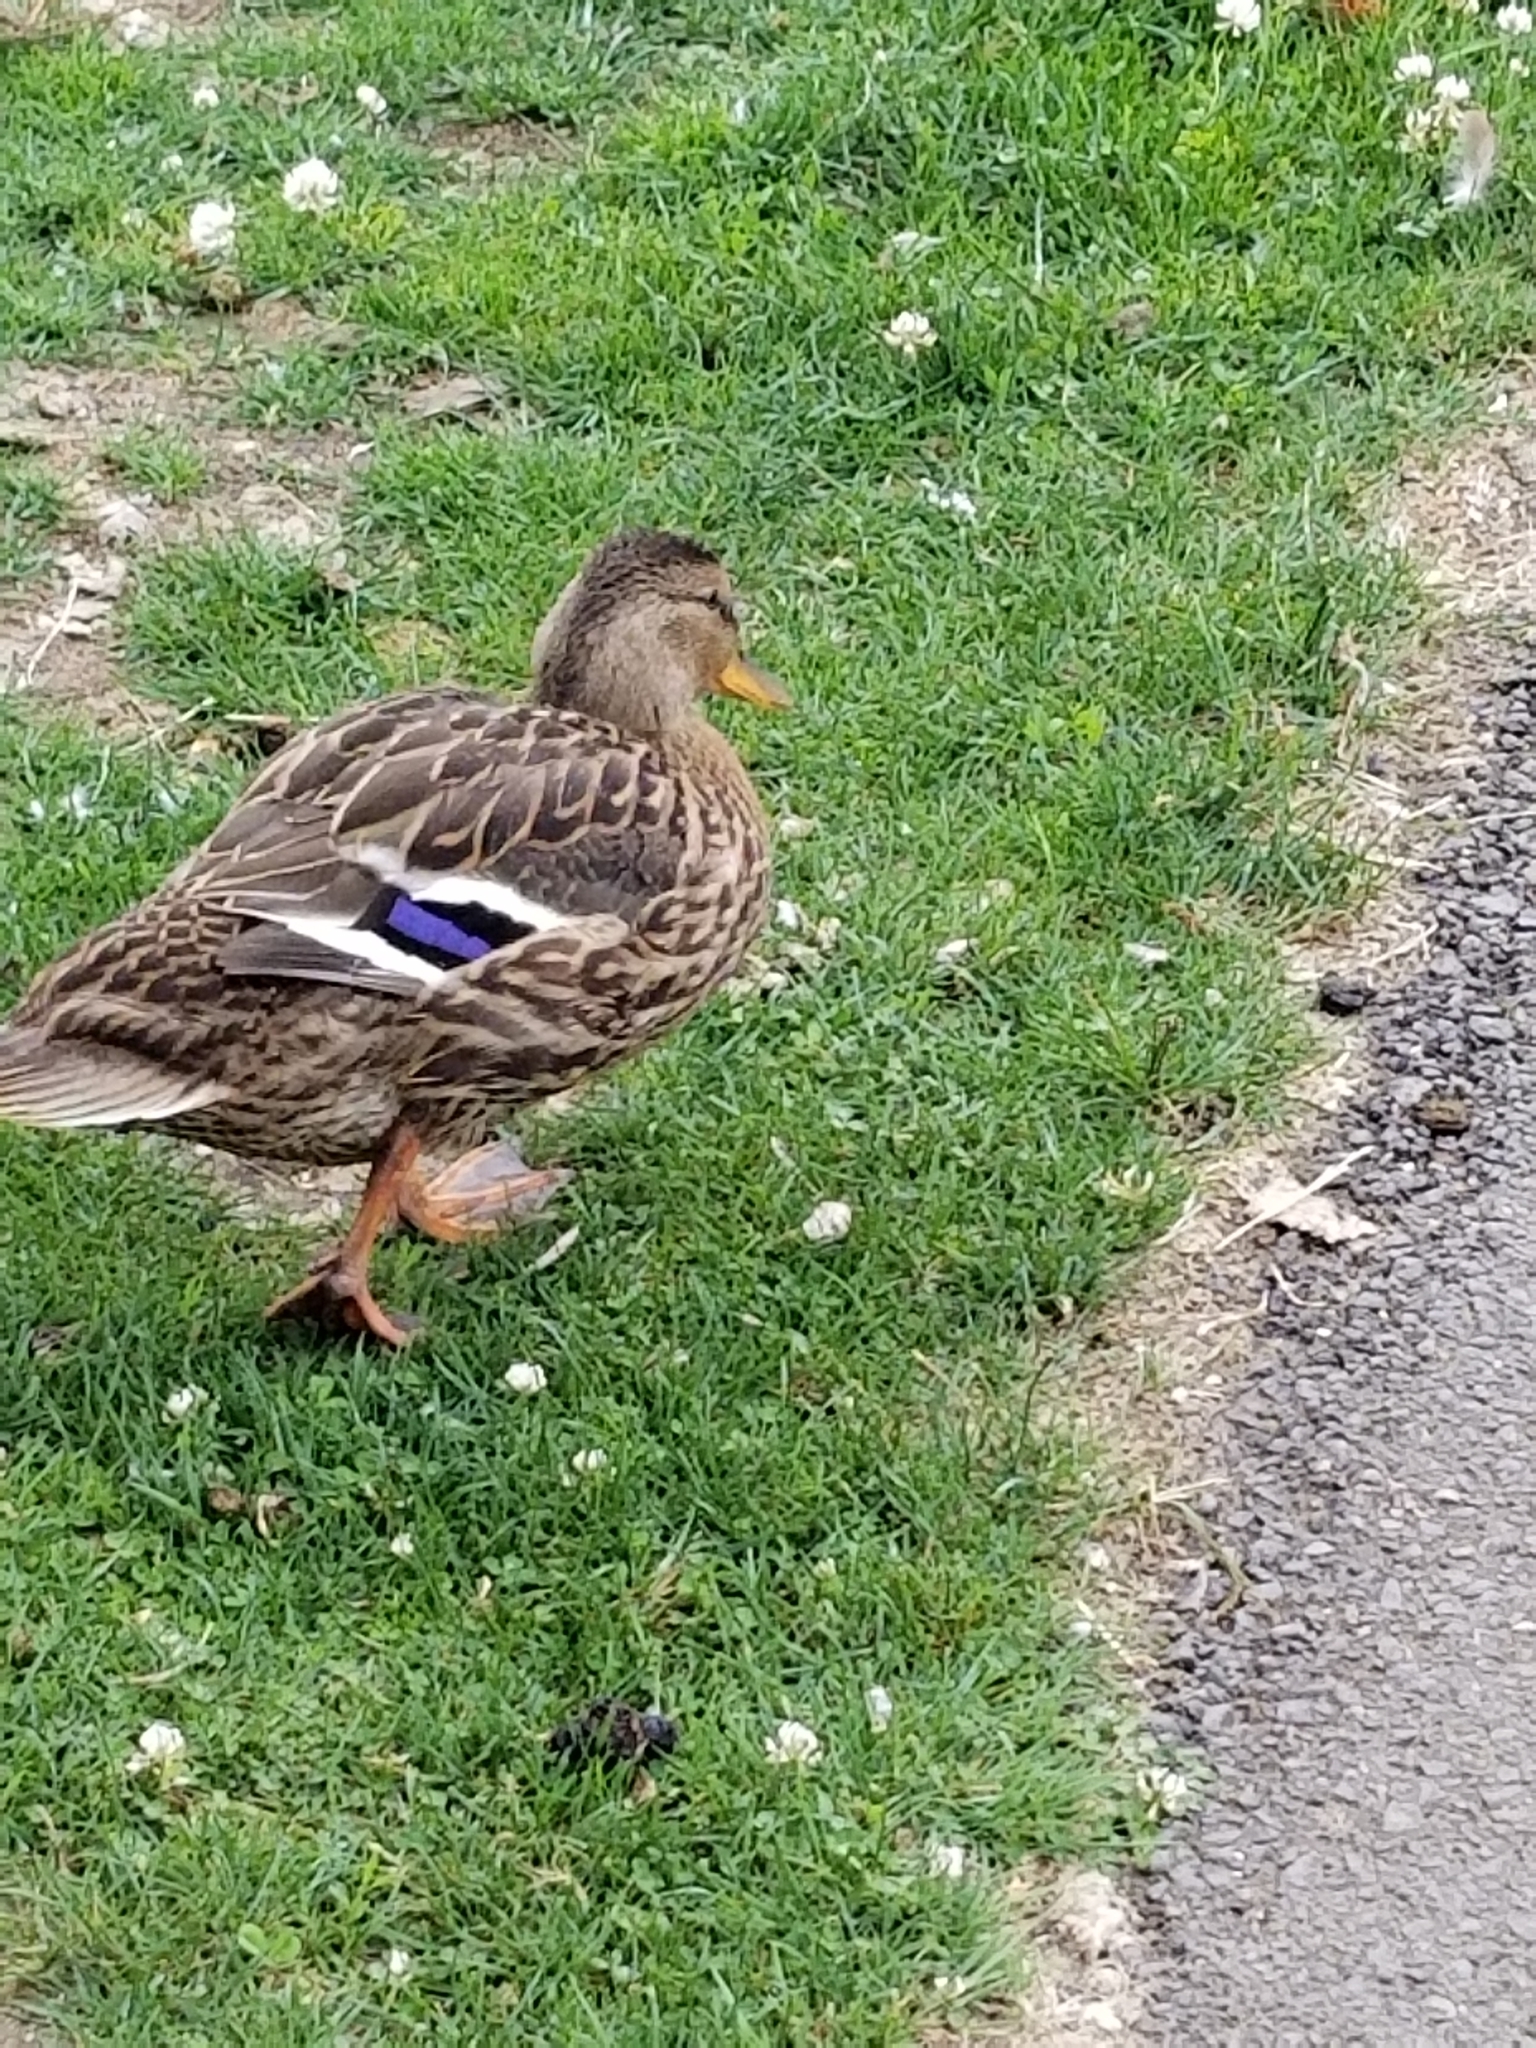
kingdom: Animalia
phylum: Chordata
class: Aves
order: Anseriformes
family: Anatidae
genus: Anas
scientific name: Anas platyrhynchos
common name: Mallard
